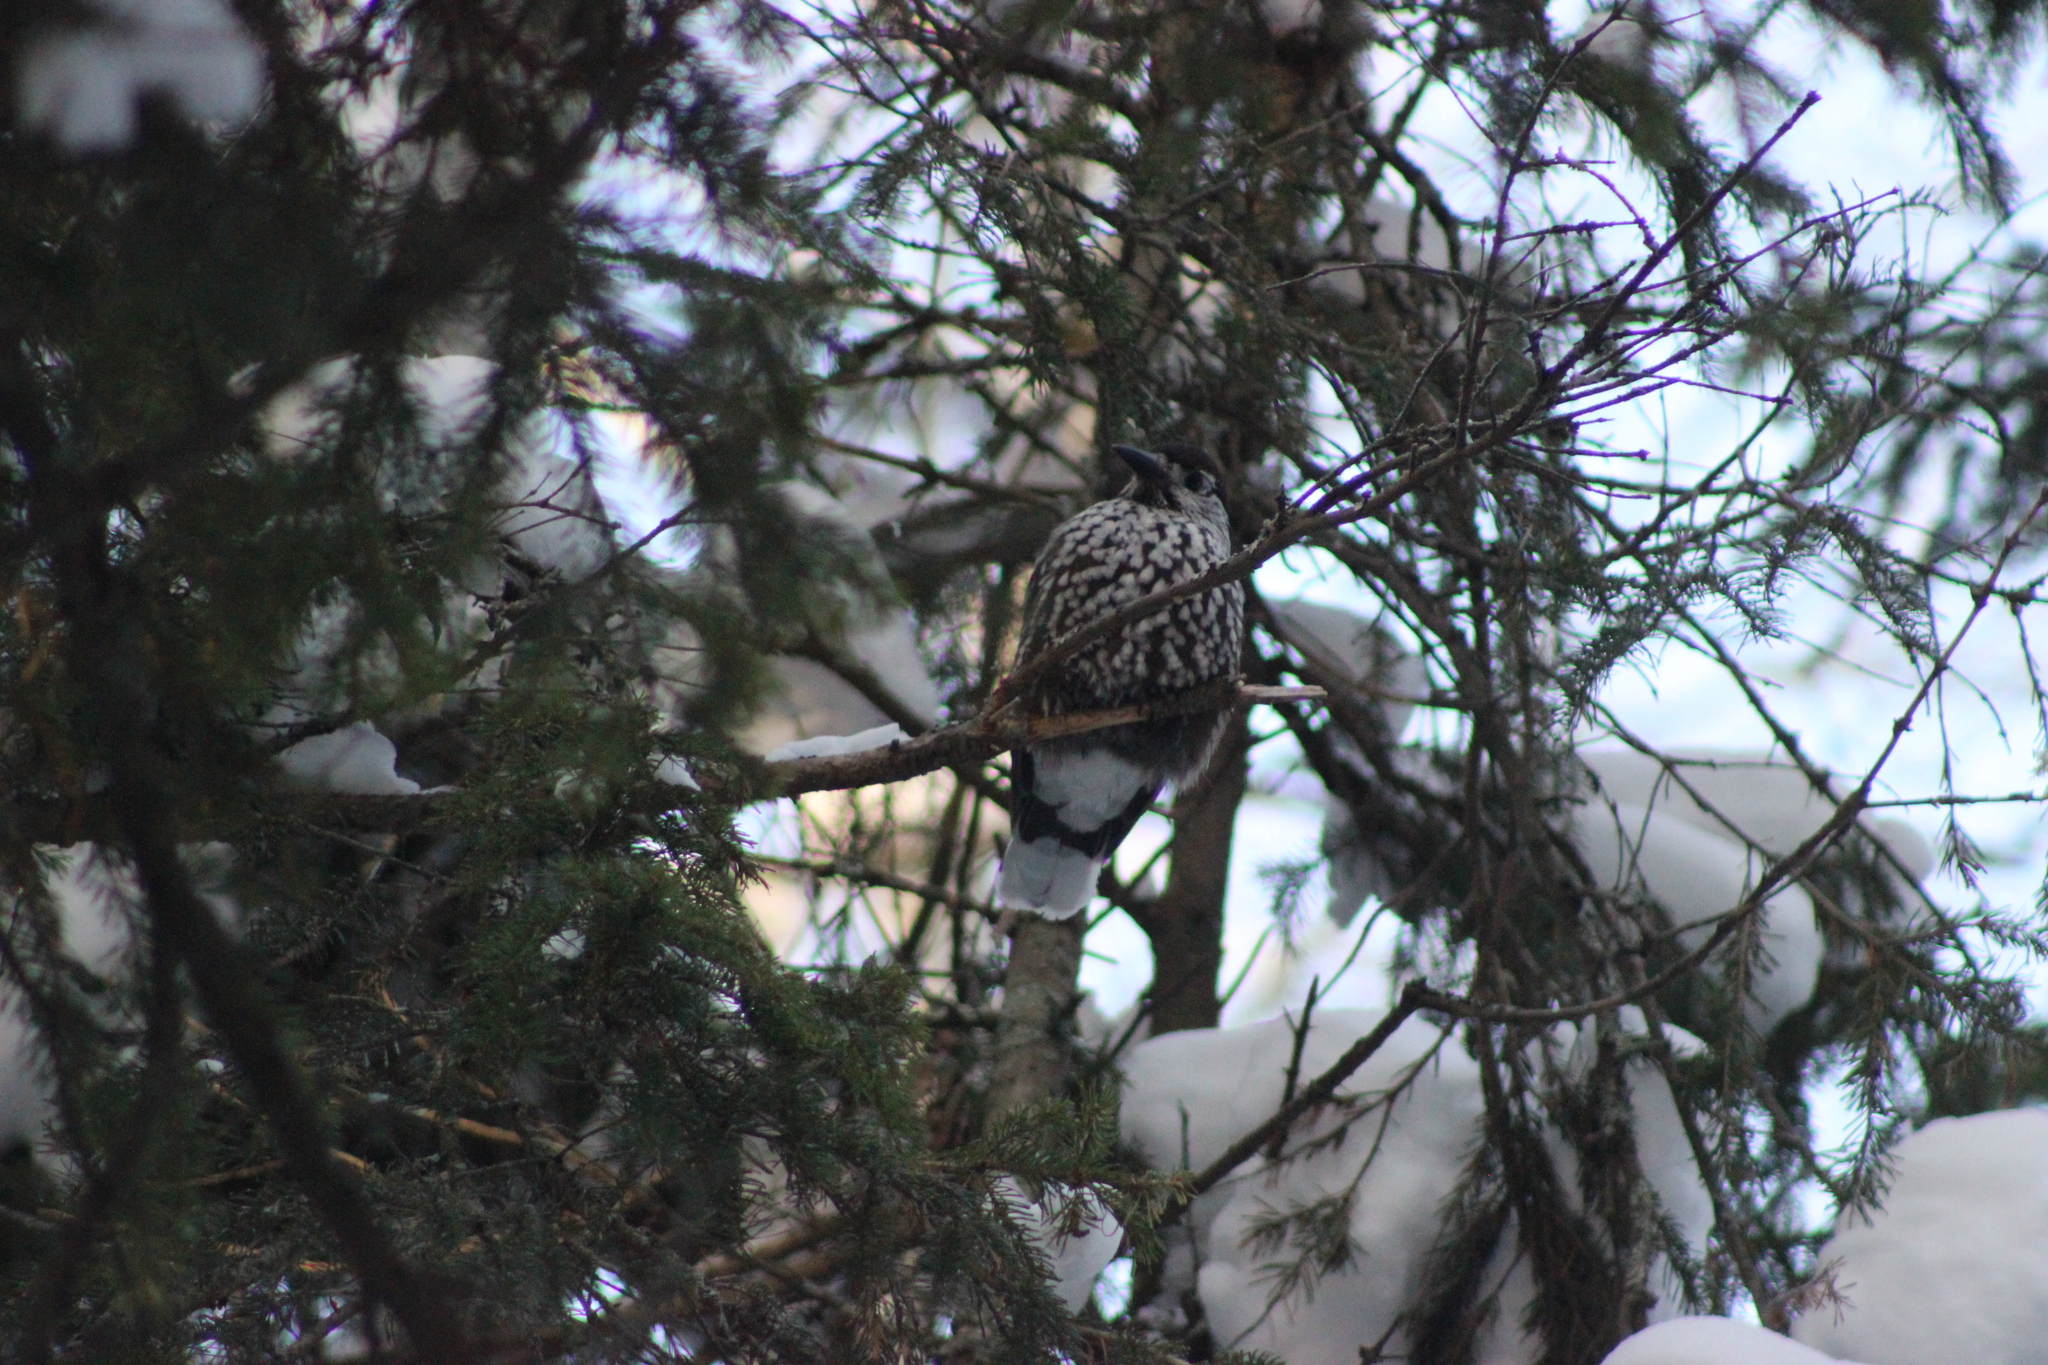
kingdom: Animalia
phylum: Chordata
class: Aves
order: Passeriformes
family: Corvidae
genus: Nucifraga
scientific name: Nucifraga caryocatactes
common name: Spotted nutcracker
